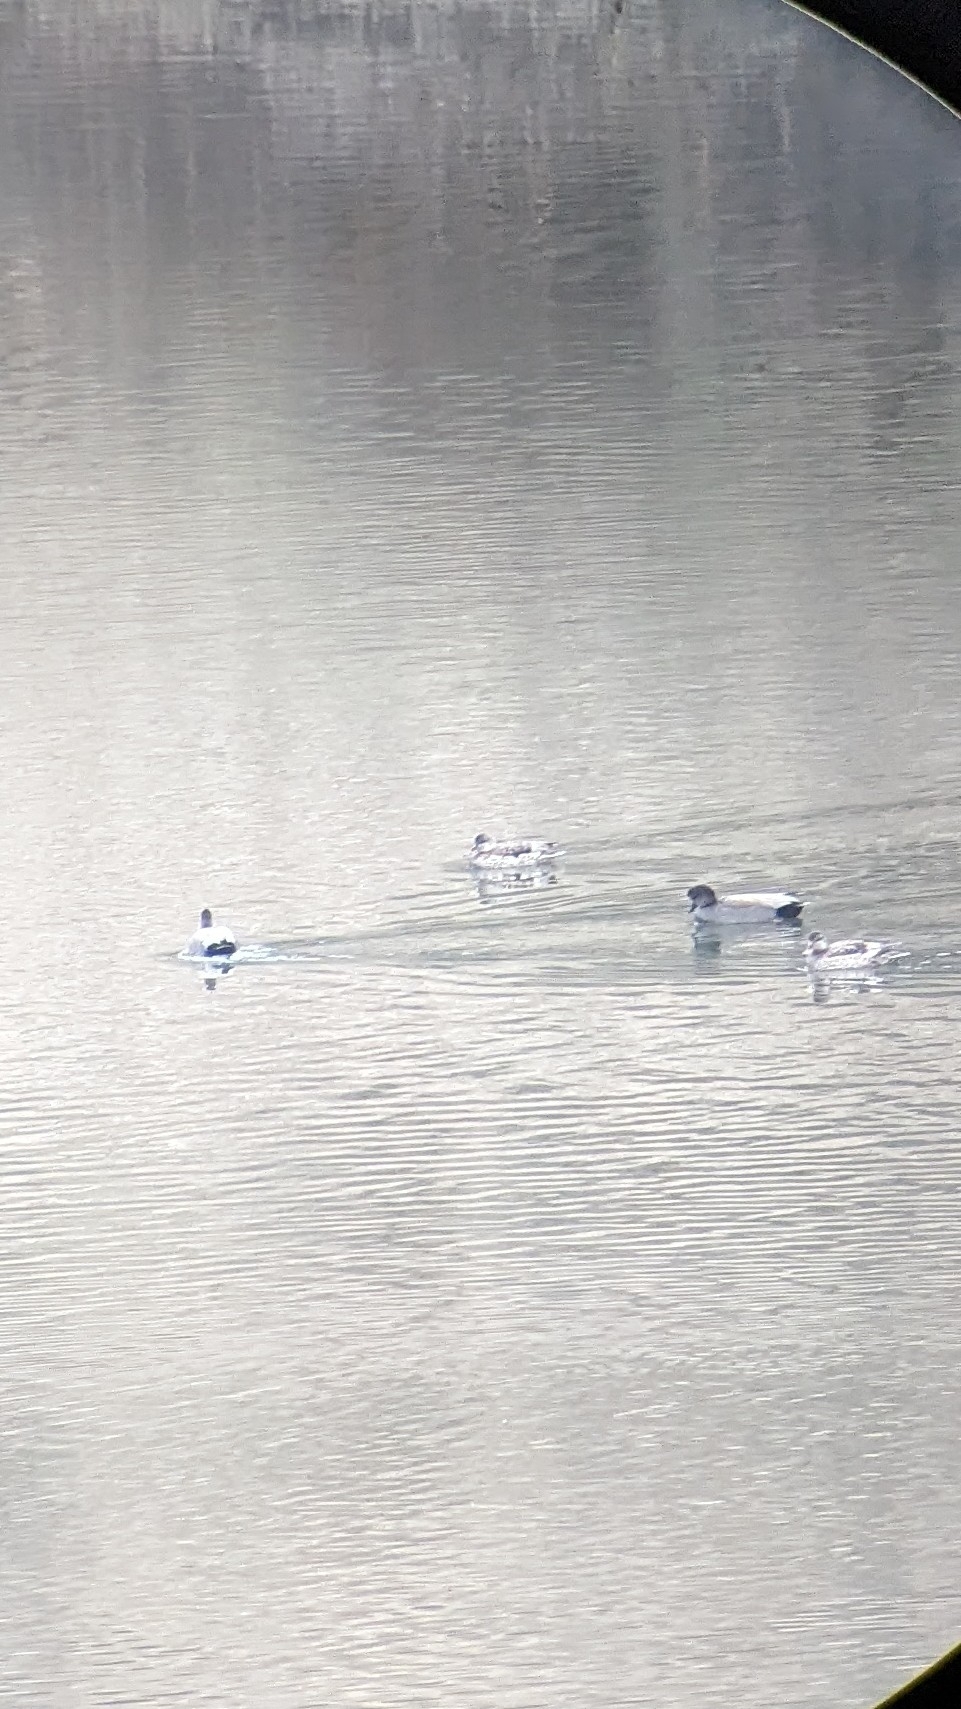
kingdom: Animalia
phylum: Chordata
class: Aves
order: Anseriformes
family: Anatidae
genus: Mareca
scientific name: Mareca strepera
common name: Gadwall
